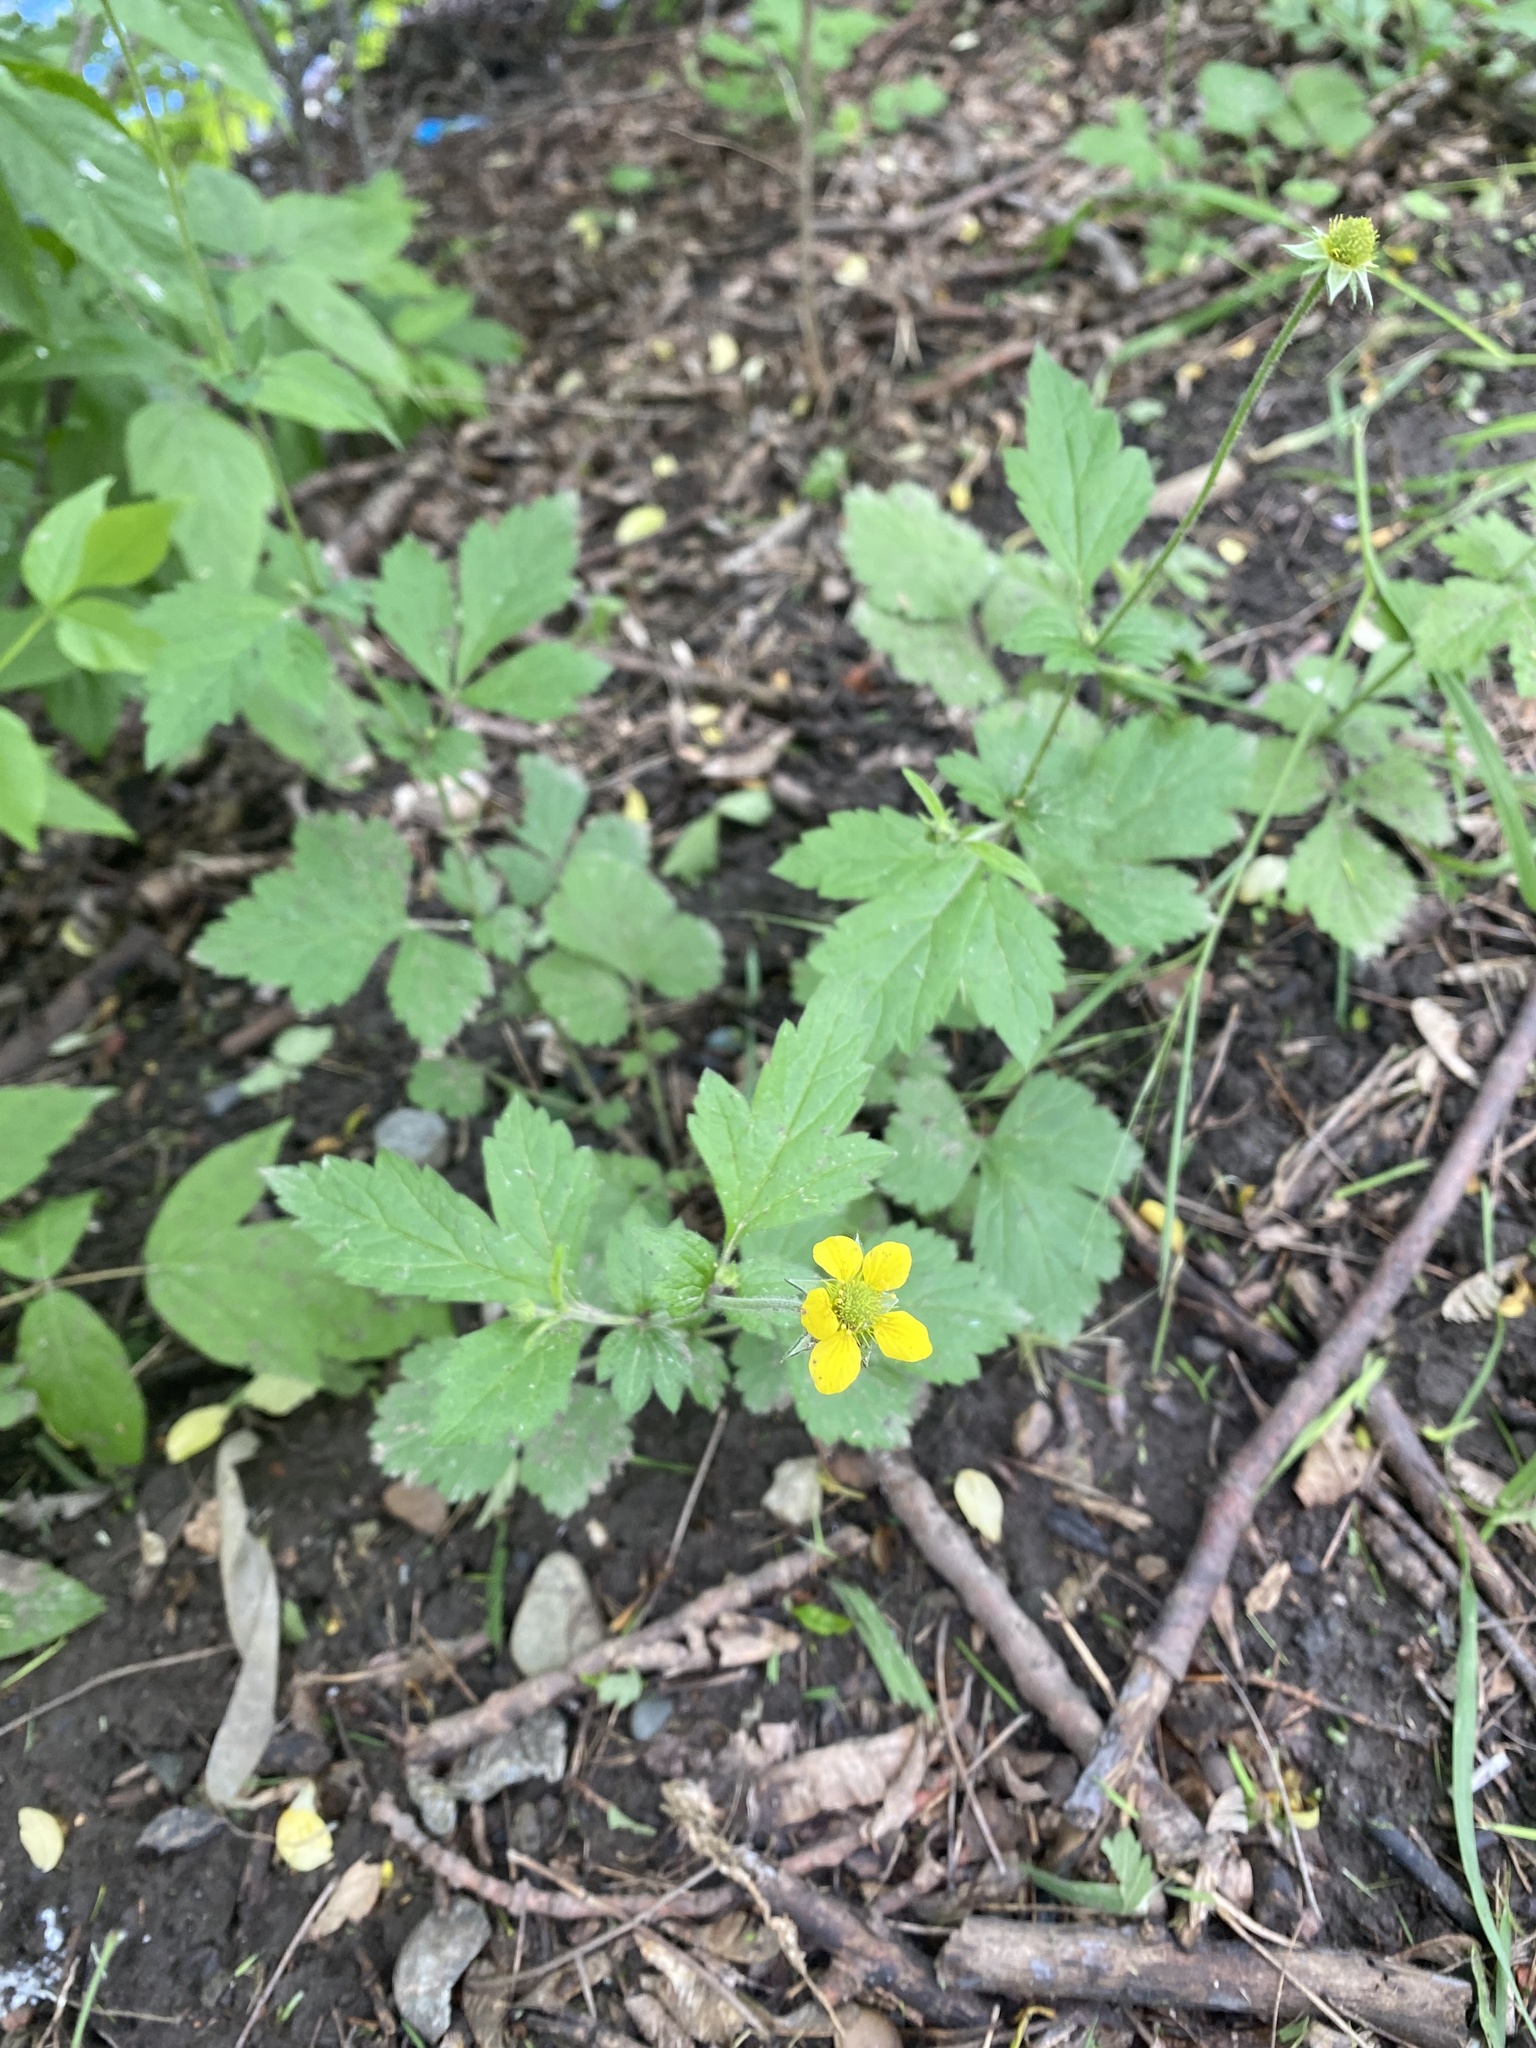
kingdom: Plantae
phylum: Tracheophyta
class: Magnoliopsida
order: Rosales
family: Rosaceae
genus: Geum
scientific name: Geum urbanum
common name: Wood avens
